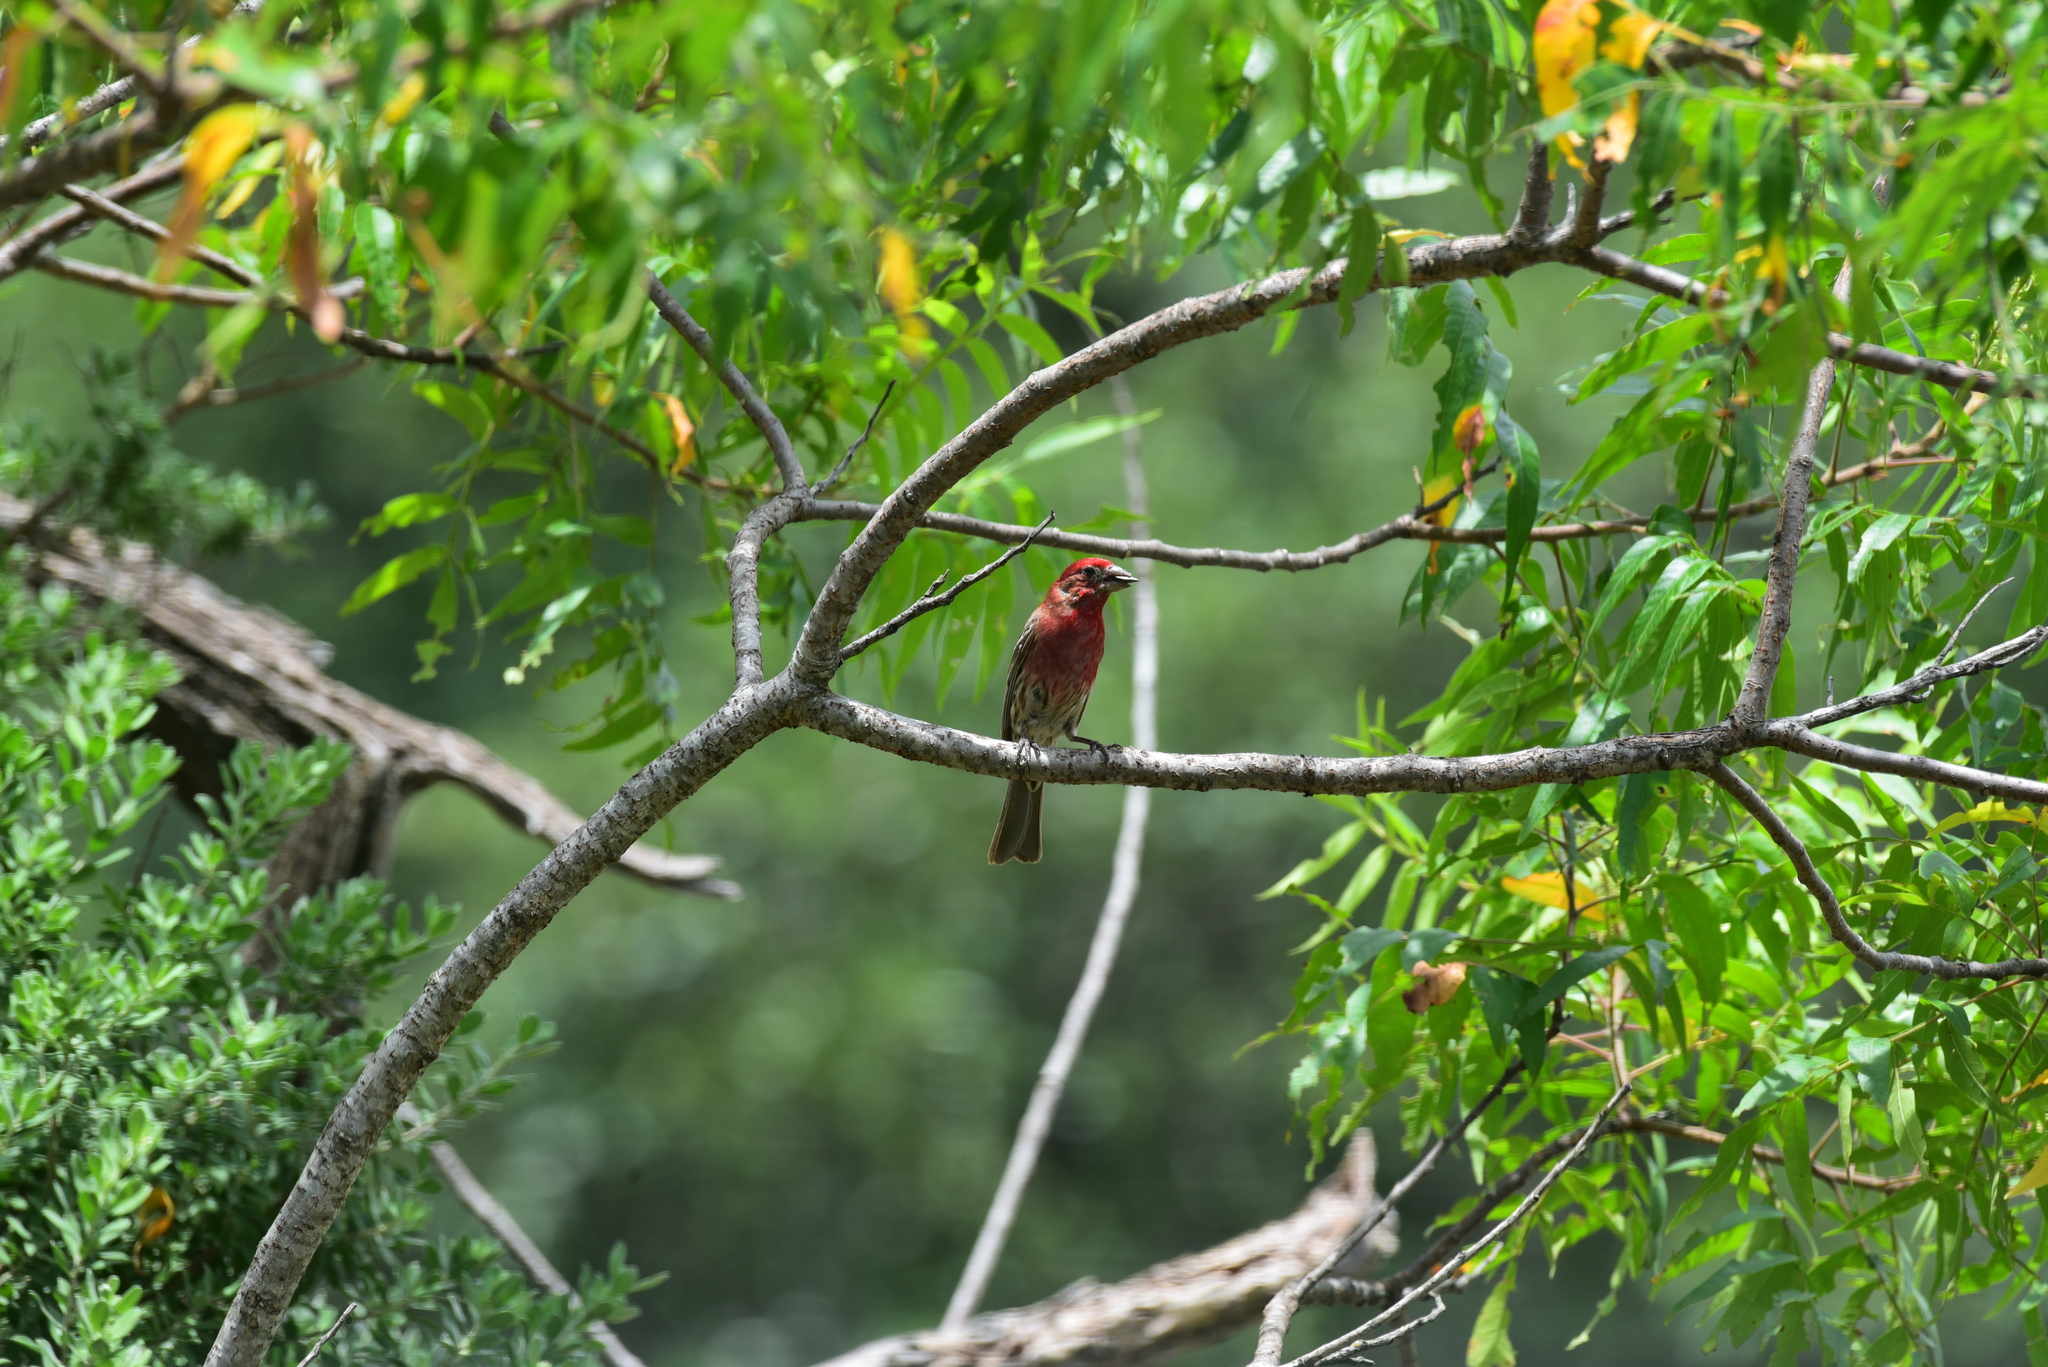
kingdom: Animalia
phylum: Chordata
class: Aves
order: Passeriformes
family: Fringillidae
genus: Haemorhous
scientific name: Haemorhous mexicanus
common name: House finch
